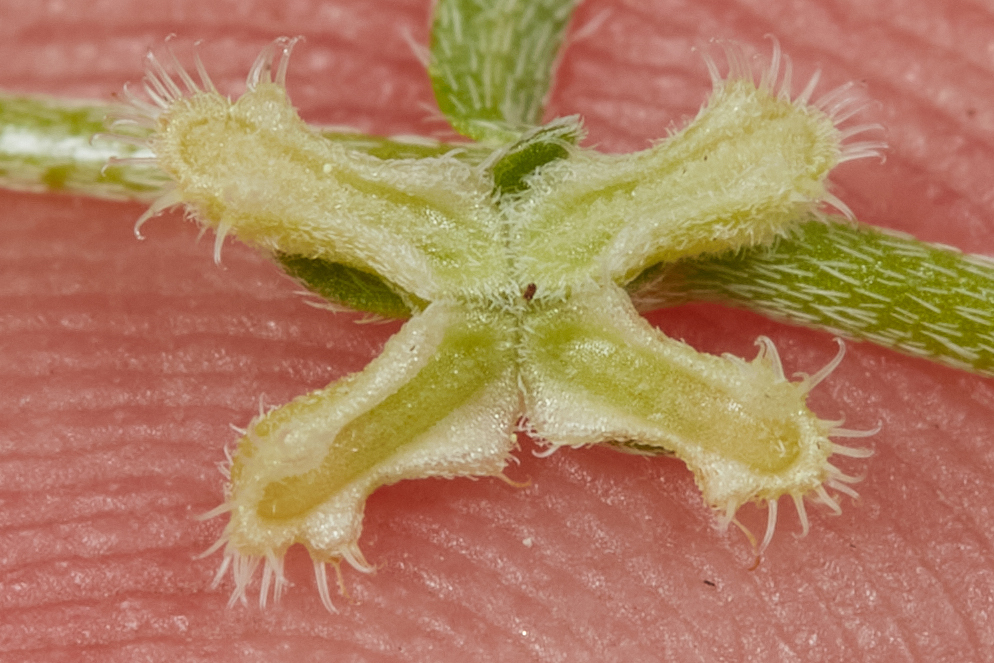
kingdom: Plantae
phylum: Tracheophyta
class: Magnoliopsida
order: Boraginales
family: Boraginaceae
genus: Pectocarya
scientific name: Pectocarya penicillata
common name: Short-leaved combseed
